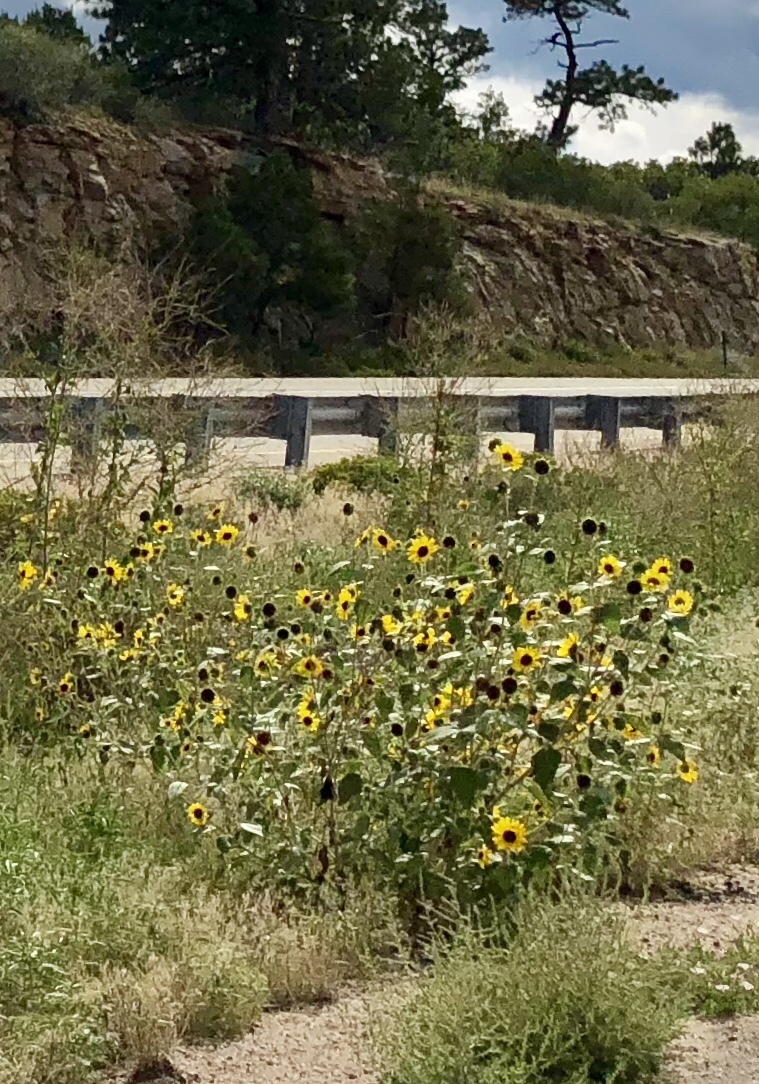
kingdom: Plantae
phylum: Tracheophyta
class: Magnoliopsida
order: Asterales
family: Asteraceae
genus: Helianthus
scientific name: Helianthus annuus
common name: Sunflower
